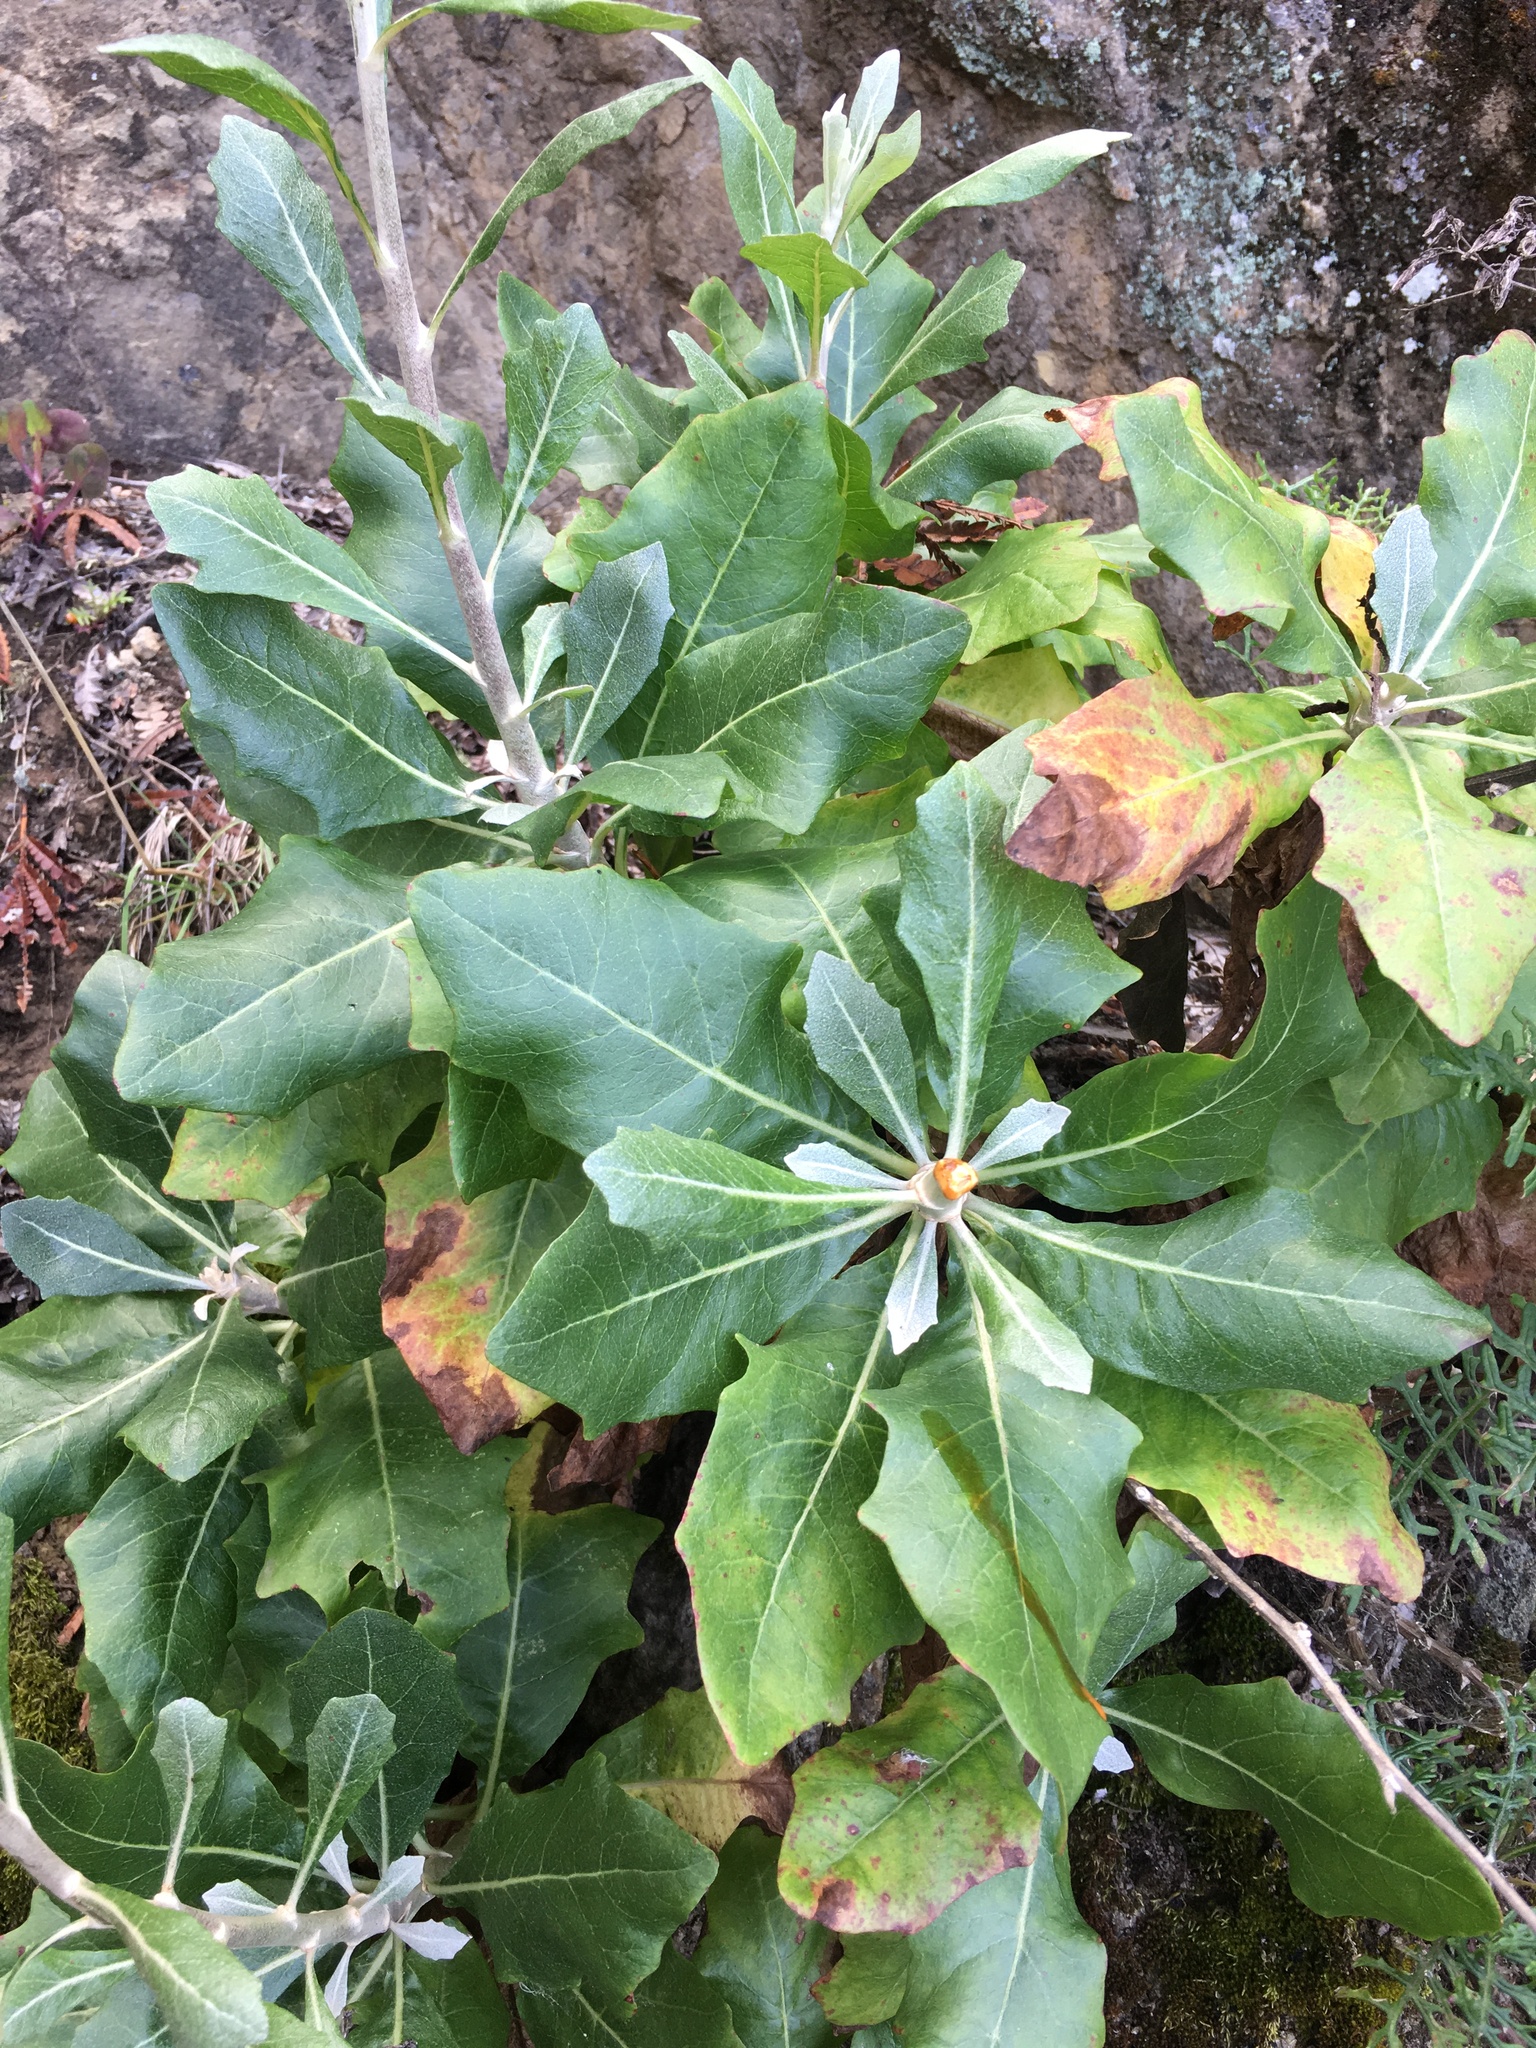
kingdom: Plantae
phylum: Tracheophyta
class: Magnoliopsida
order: Asterales
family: Asteraceae
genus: Munzothamnus
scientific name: Munzothamnus blairii
